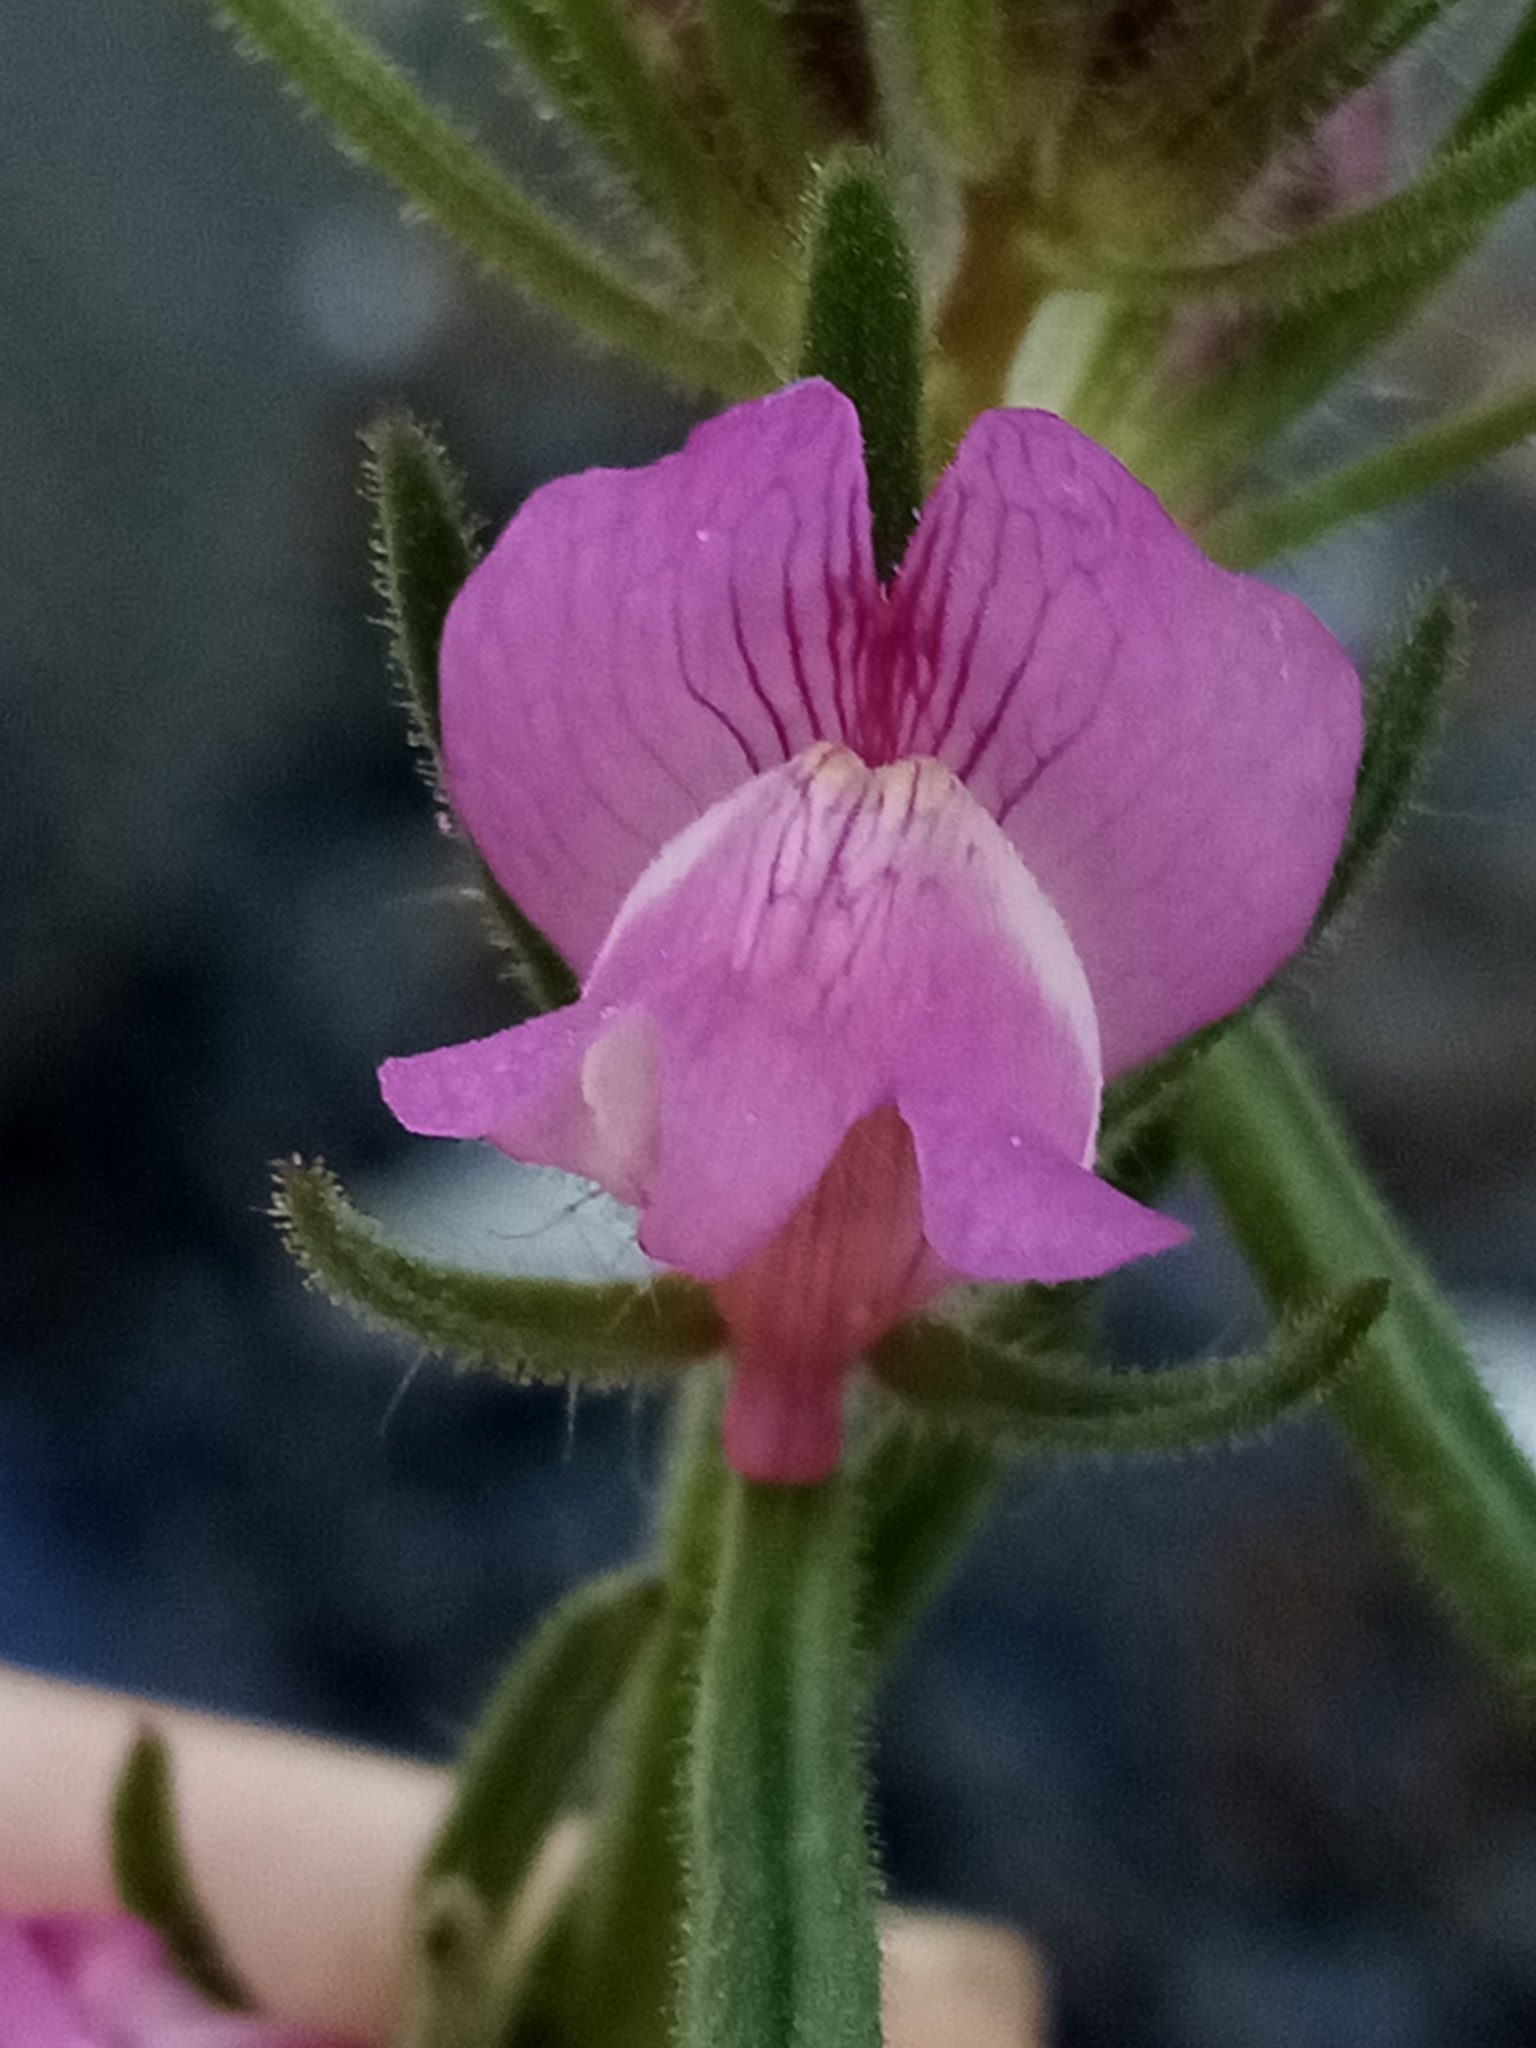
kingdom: Plantae
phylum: Tracheophyta
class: Magnoliopsida
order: Lamiales
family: Plantaginaceae
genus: Misopates
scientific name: Misopates orontium
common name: Weasel's-snout
